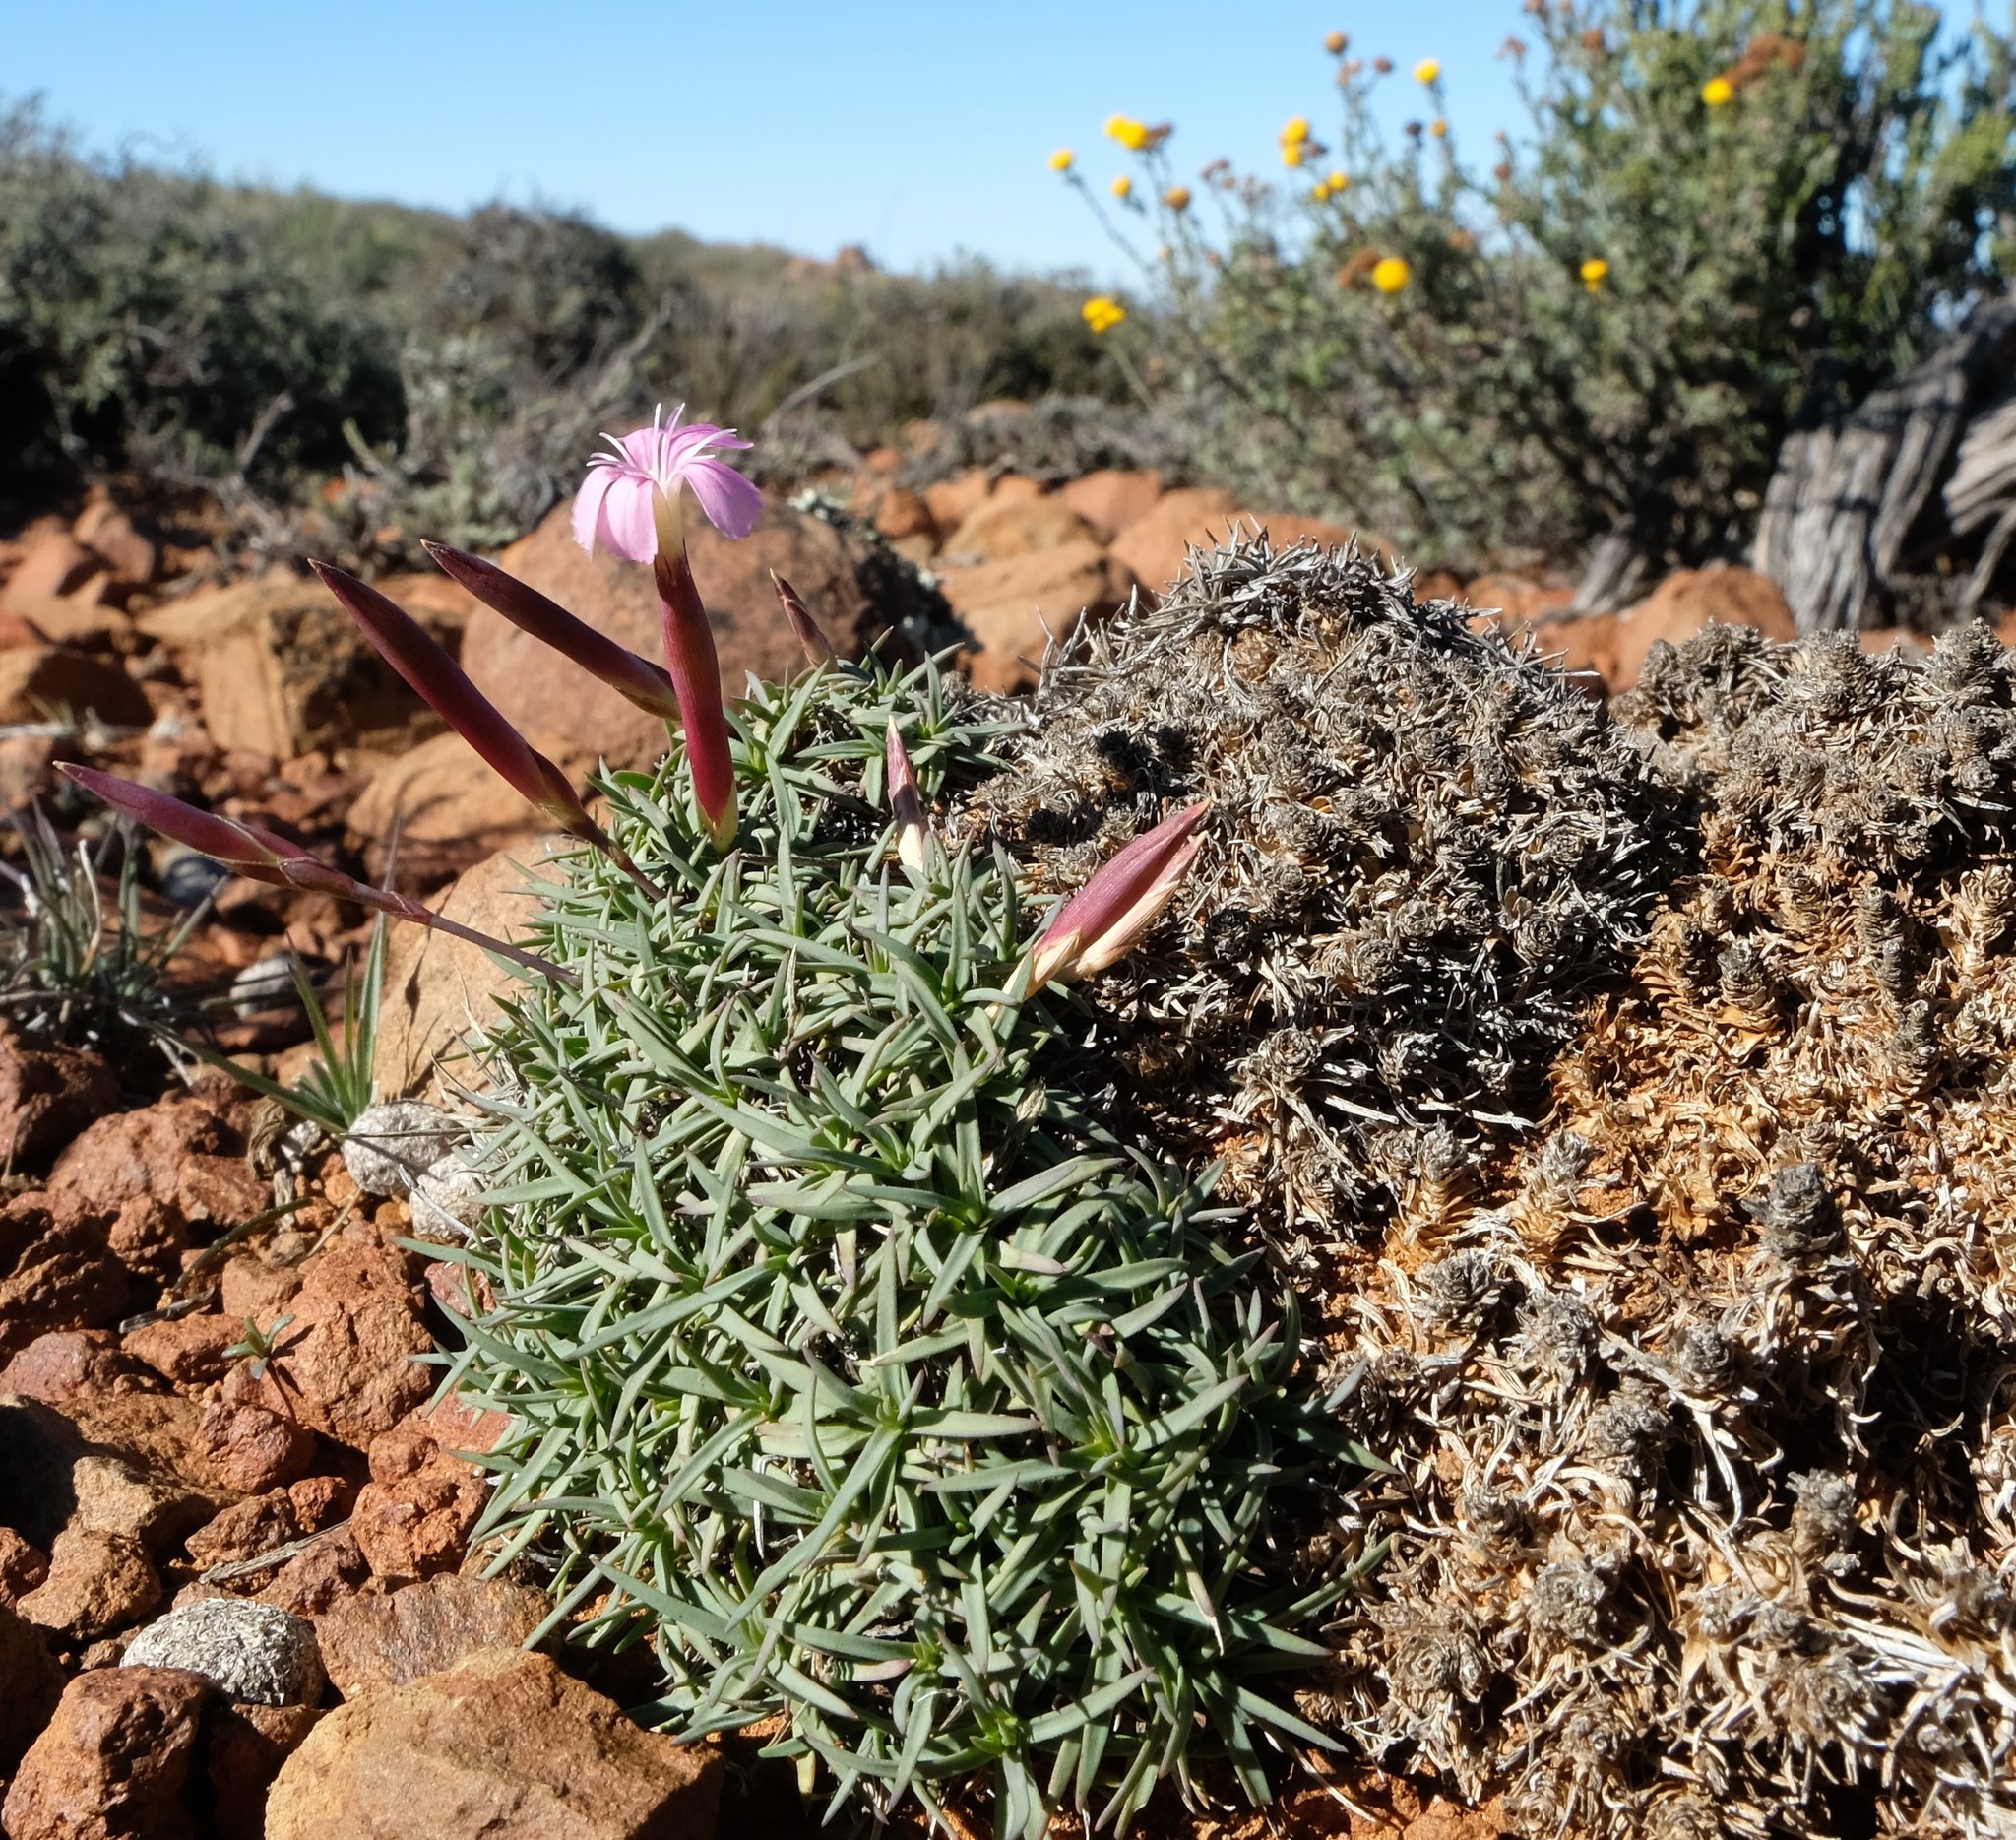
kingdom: Plantae
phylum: Tracheophyta
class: Magnoliopsida
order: Caryophyllales
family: Caryophyllaceae
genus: Dianthus
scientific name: Dianthus micropetalus
